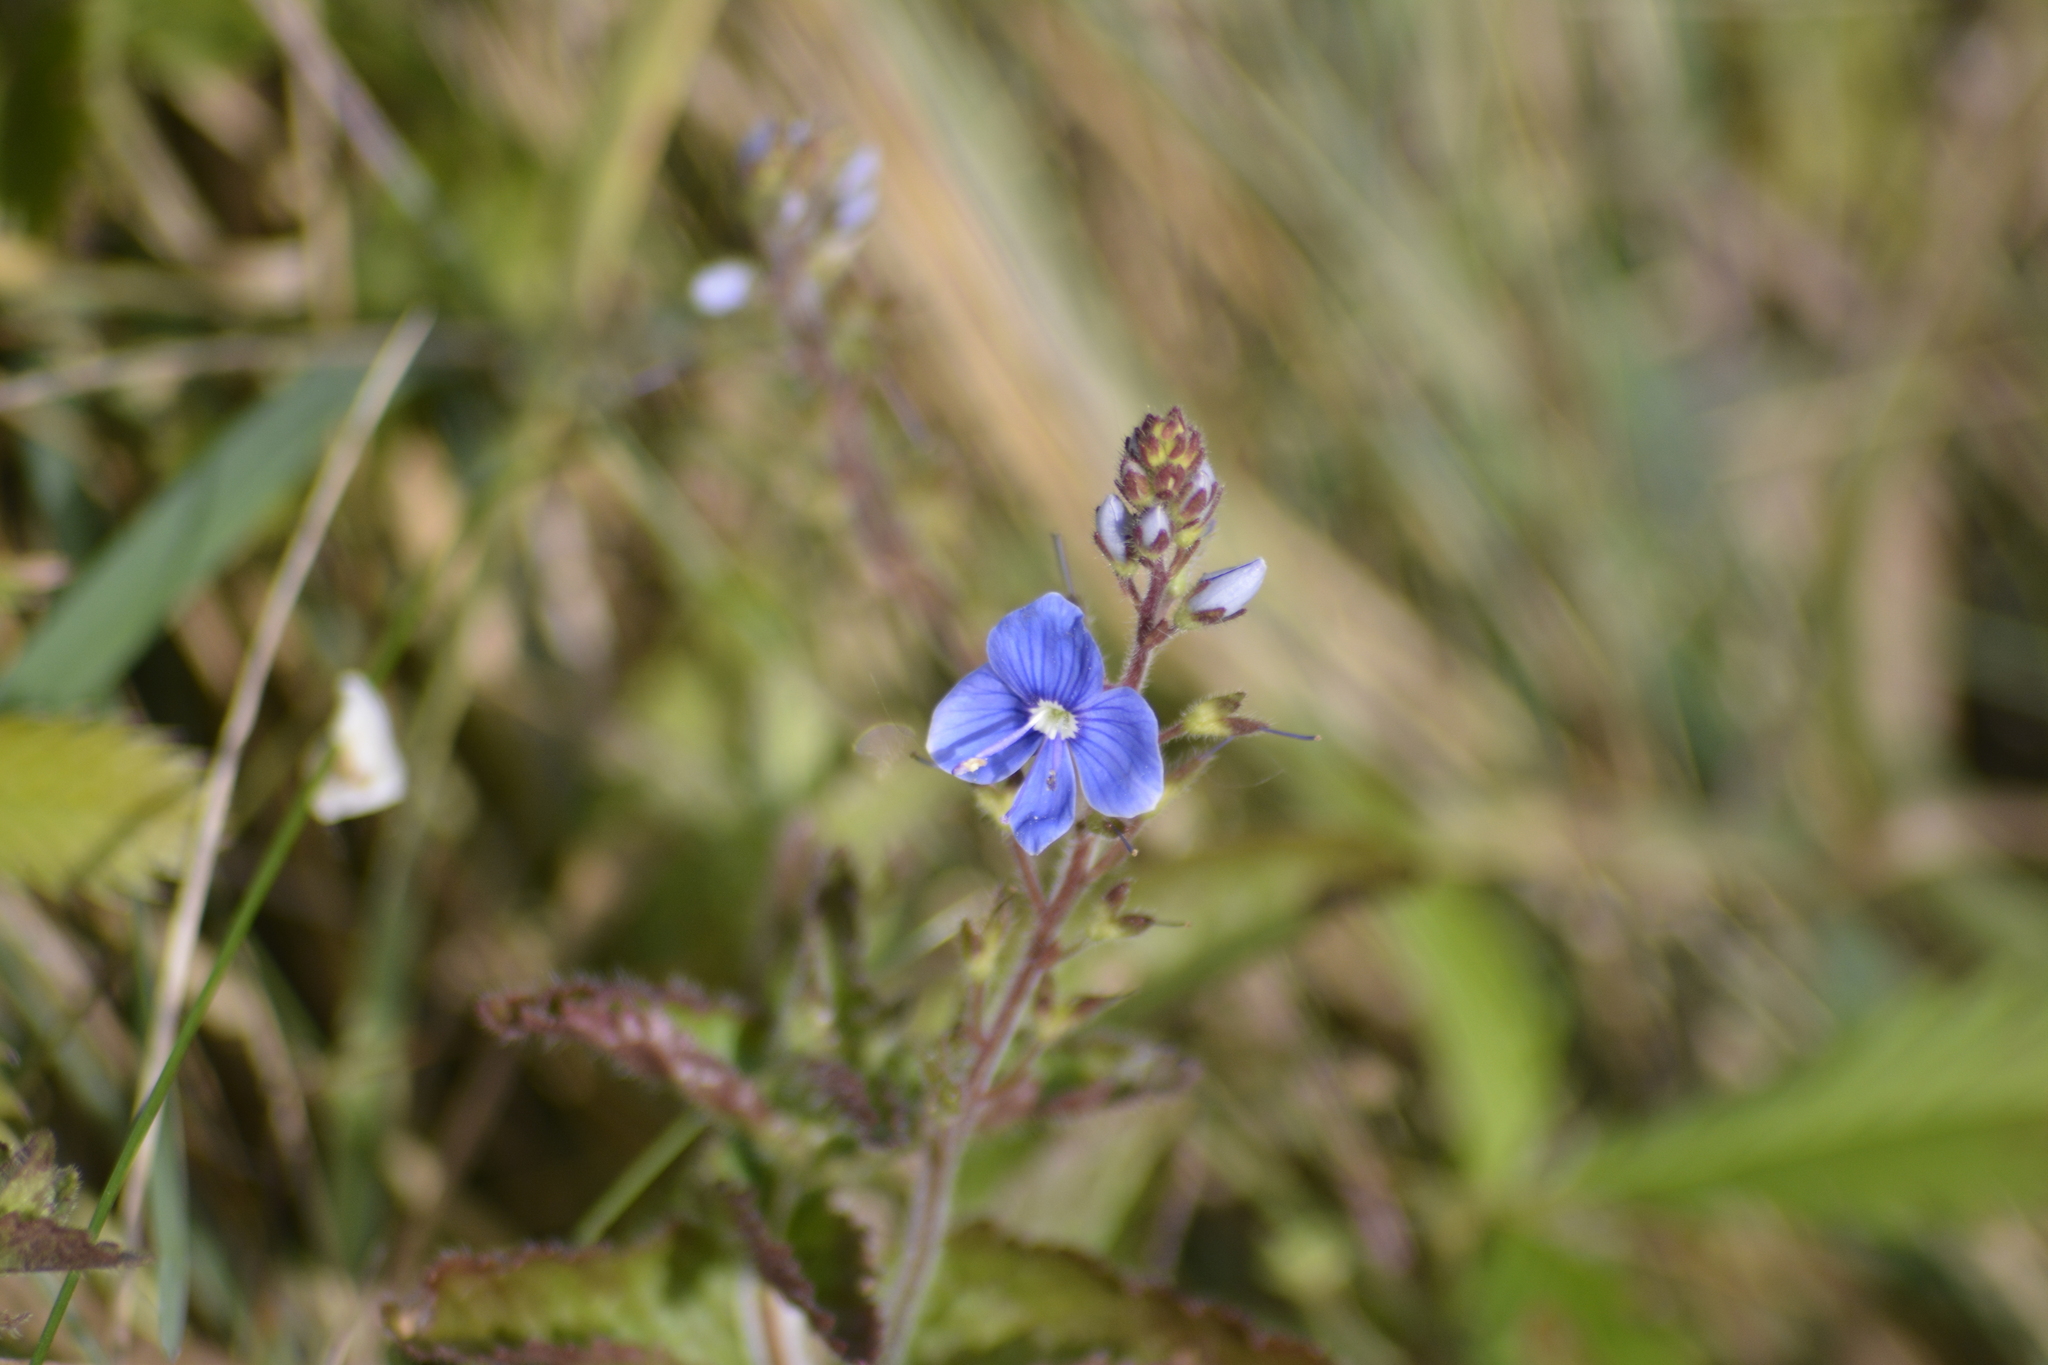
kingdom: Plantae
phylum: Tracheophyta
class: Magnoliopsida
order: Lamiales
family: Plantaginaceae
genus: Veronica
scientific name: Veronica chamaedrys
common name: Germander speedwell
